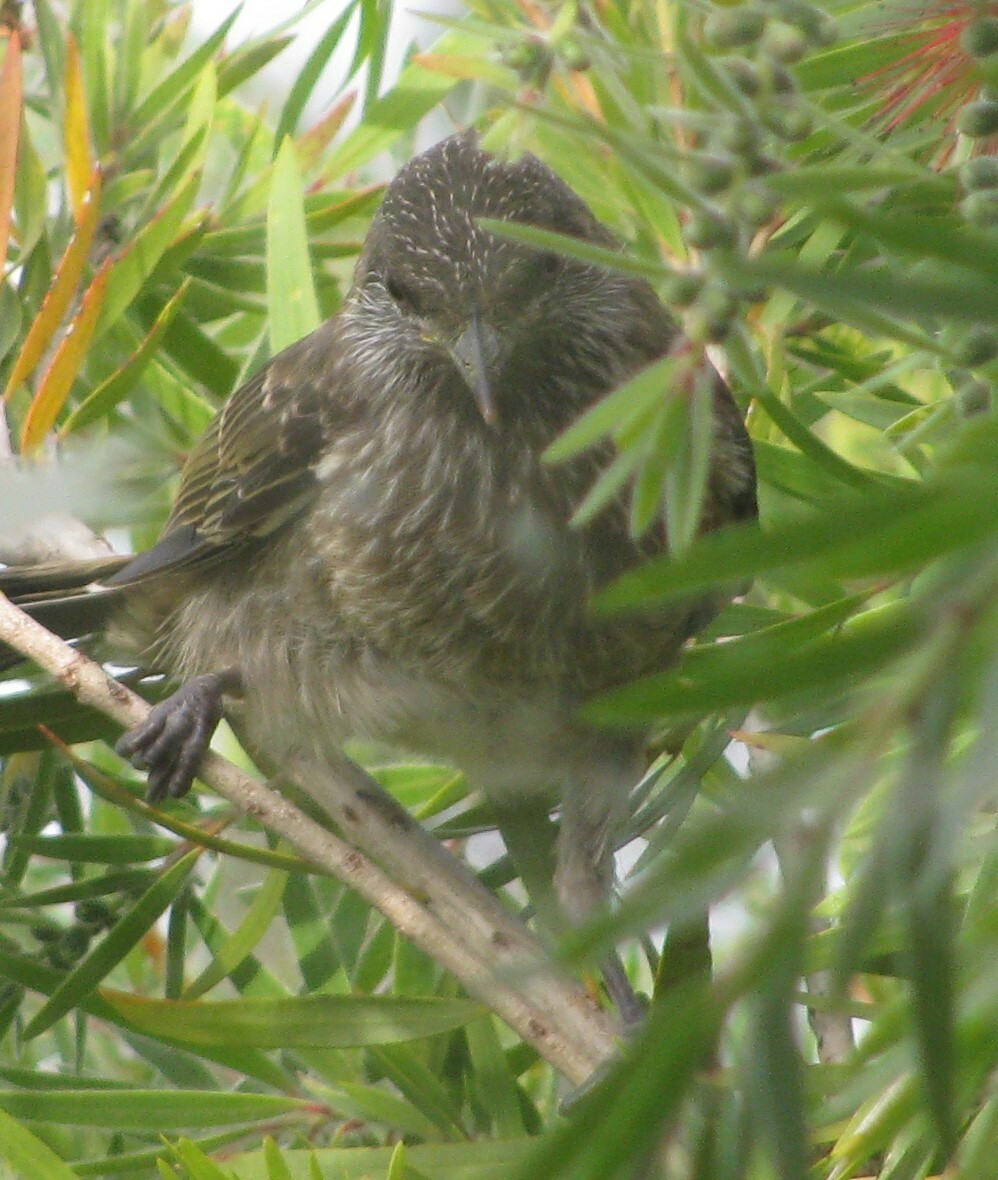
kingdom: Animalia
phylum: Chordata
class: Aves
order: Passeriformes
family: Meliphagidae
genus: Anthochaera
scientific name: Anthochaera chrysoptera
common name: Little wattlebird
